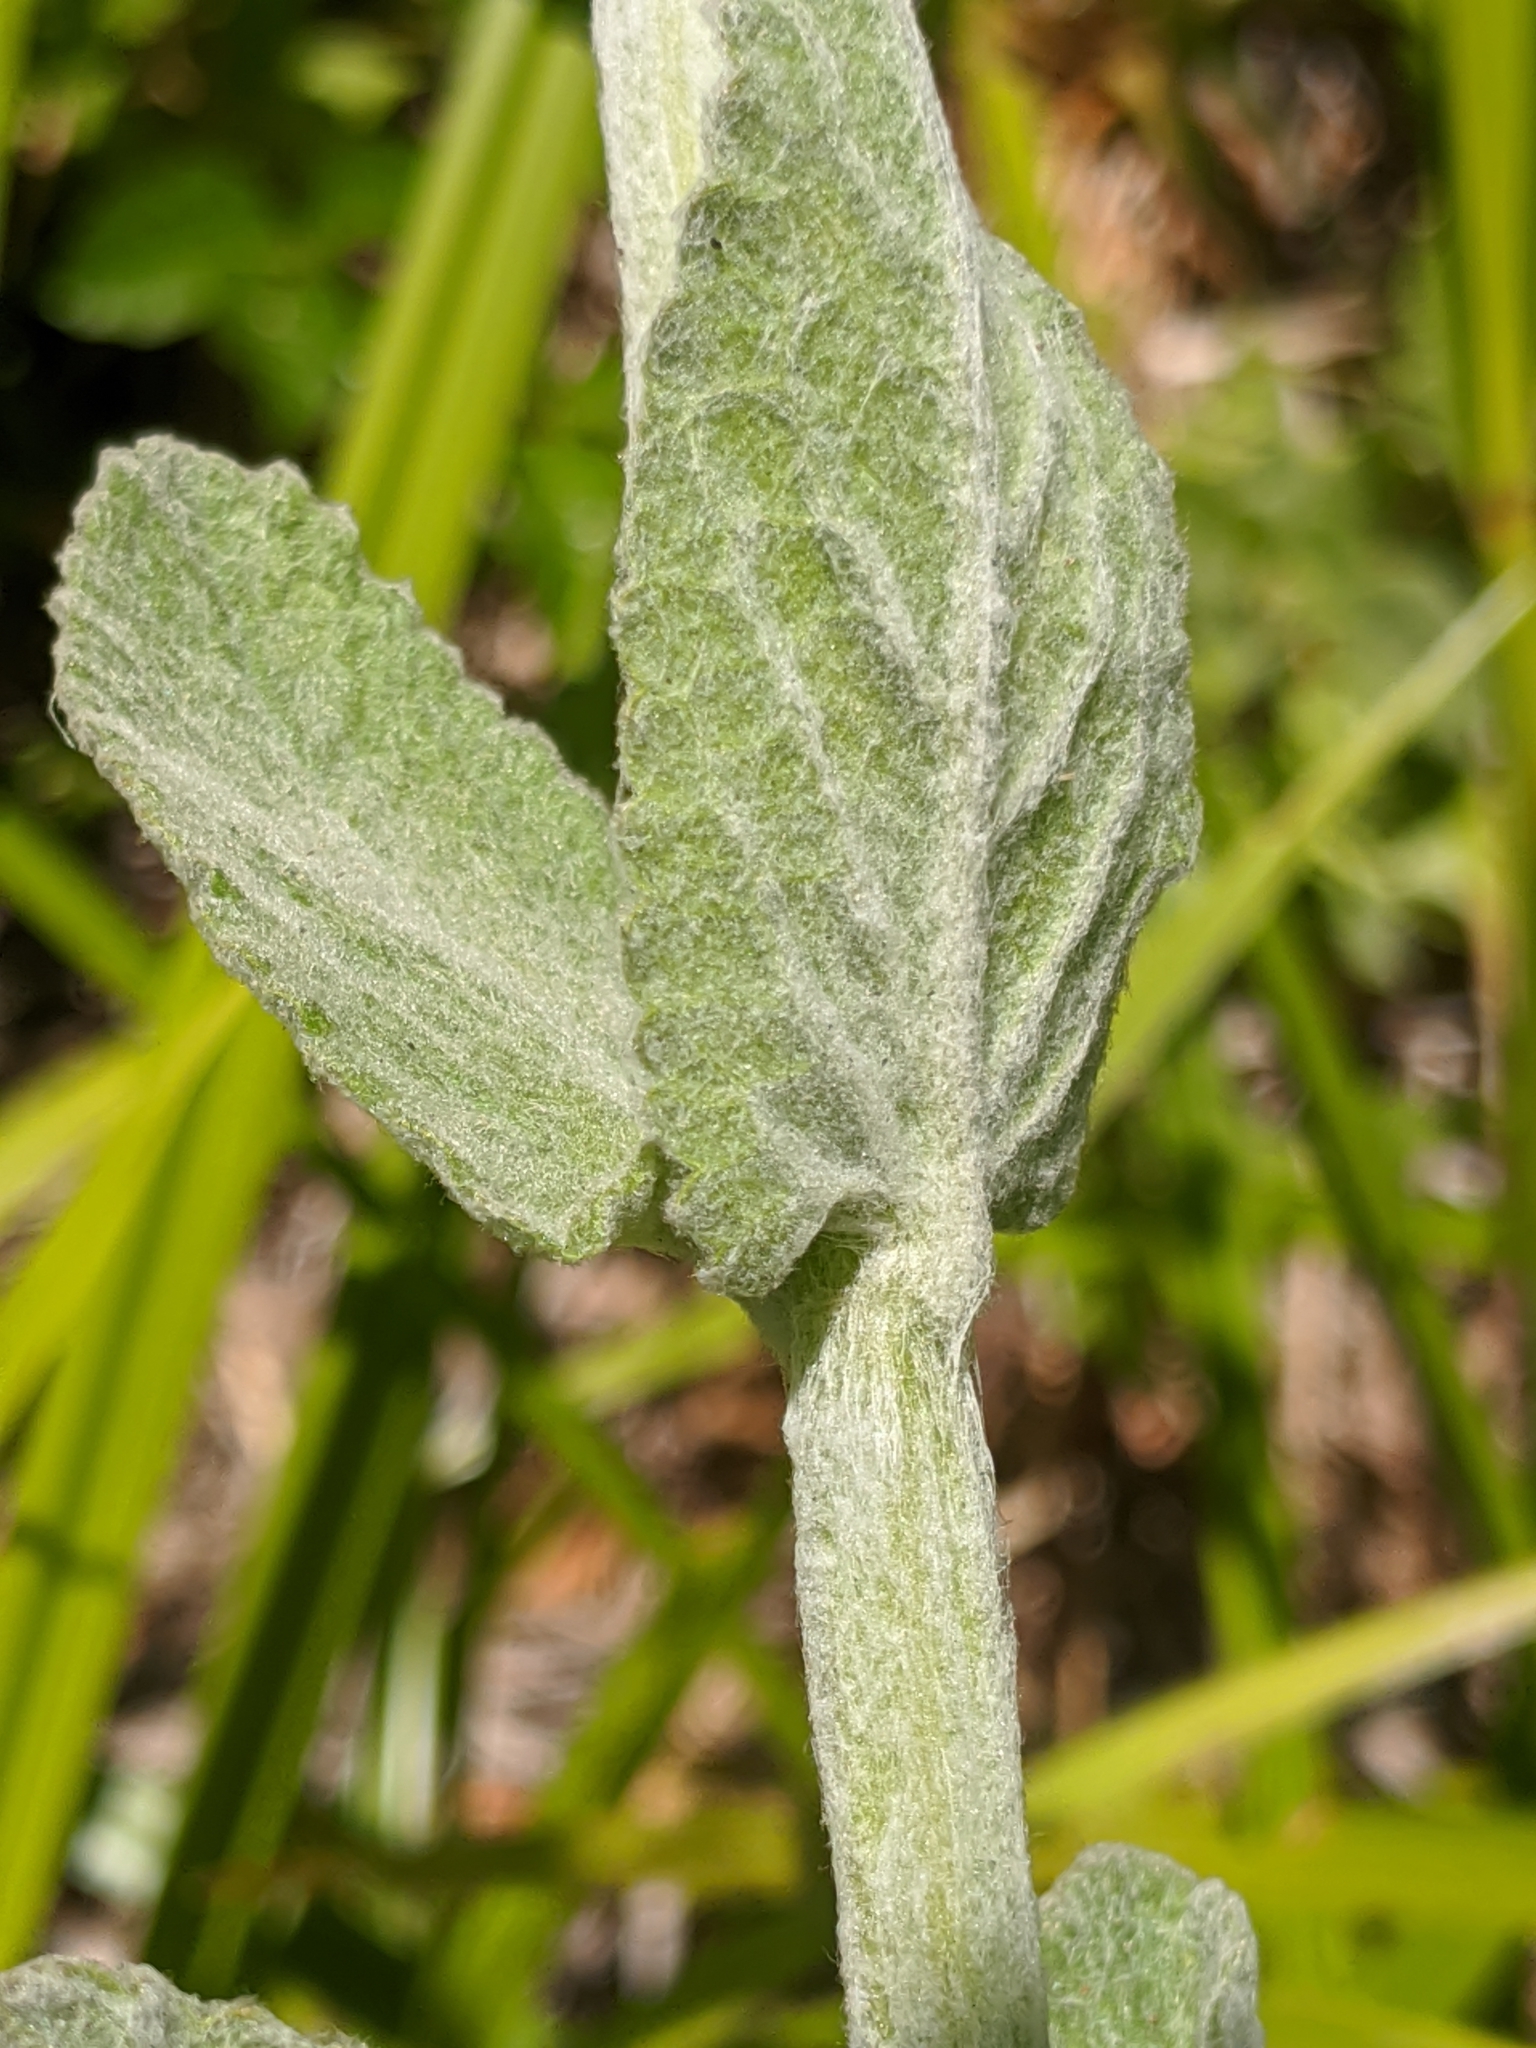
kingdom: Plantae
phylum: Tracheophyta
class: Magnoliopsida
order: Lamiales
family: Lamiaceae
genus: Stachys
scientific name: Stachys albens
